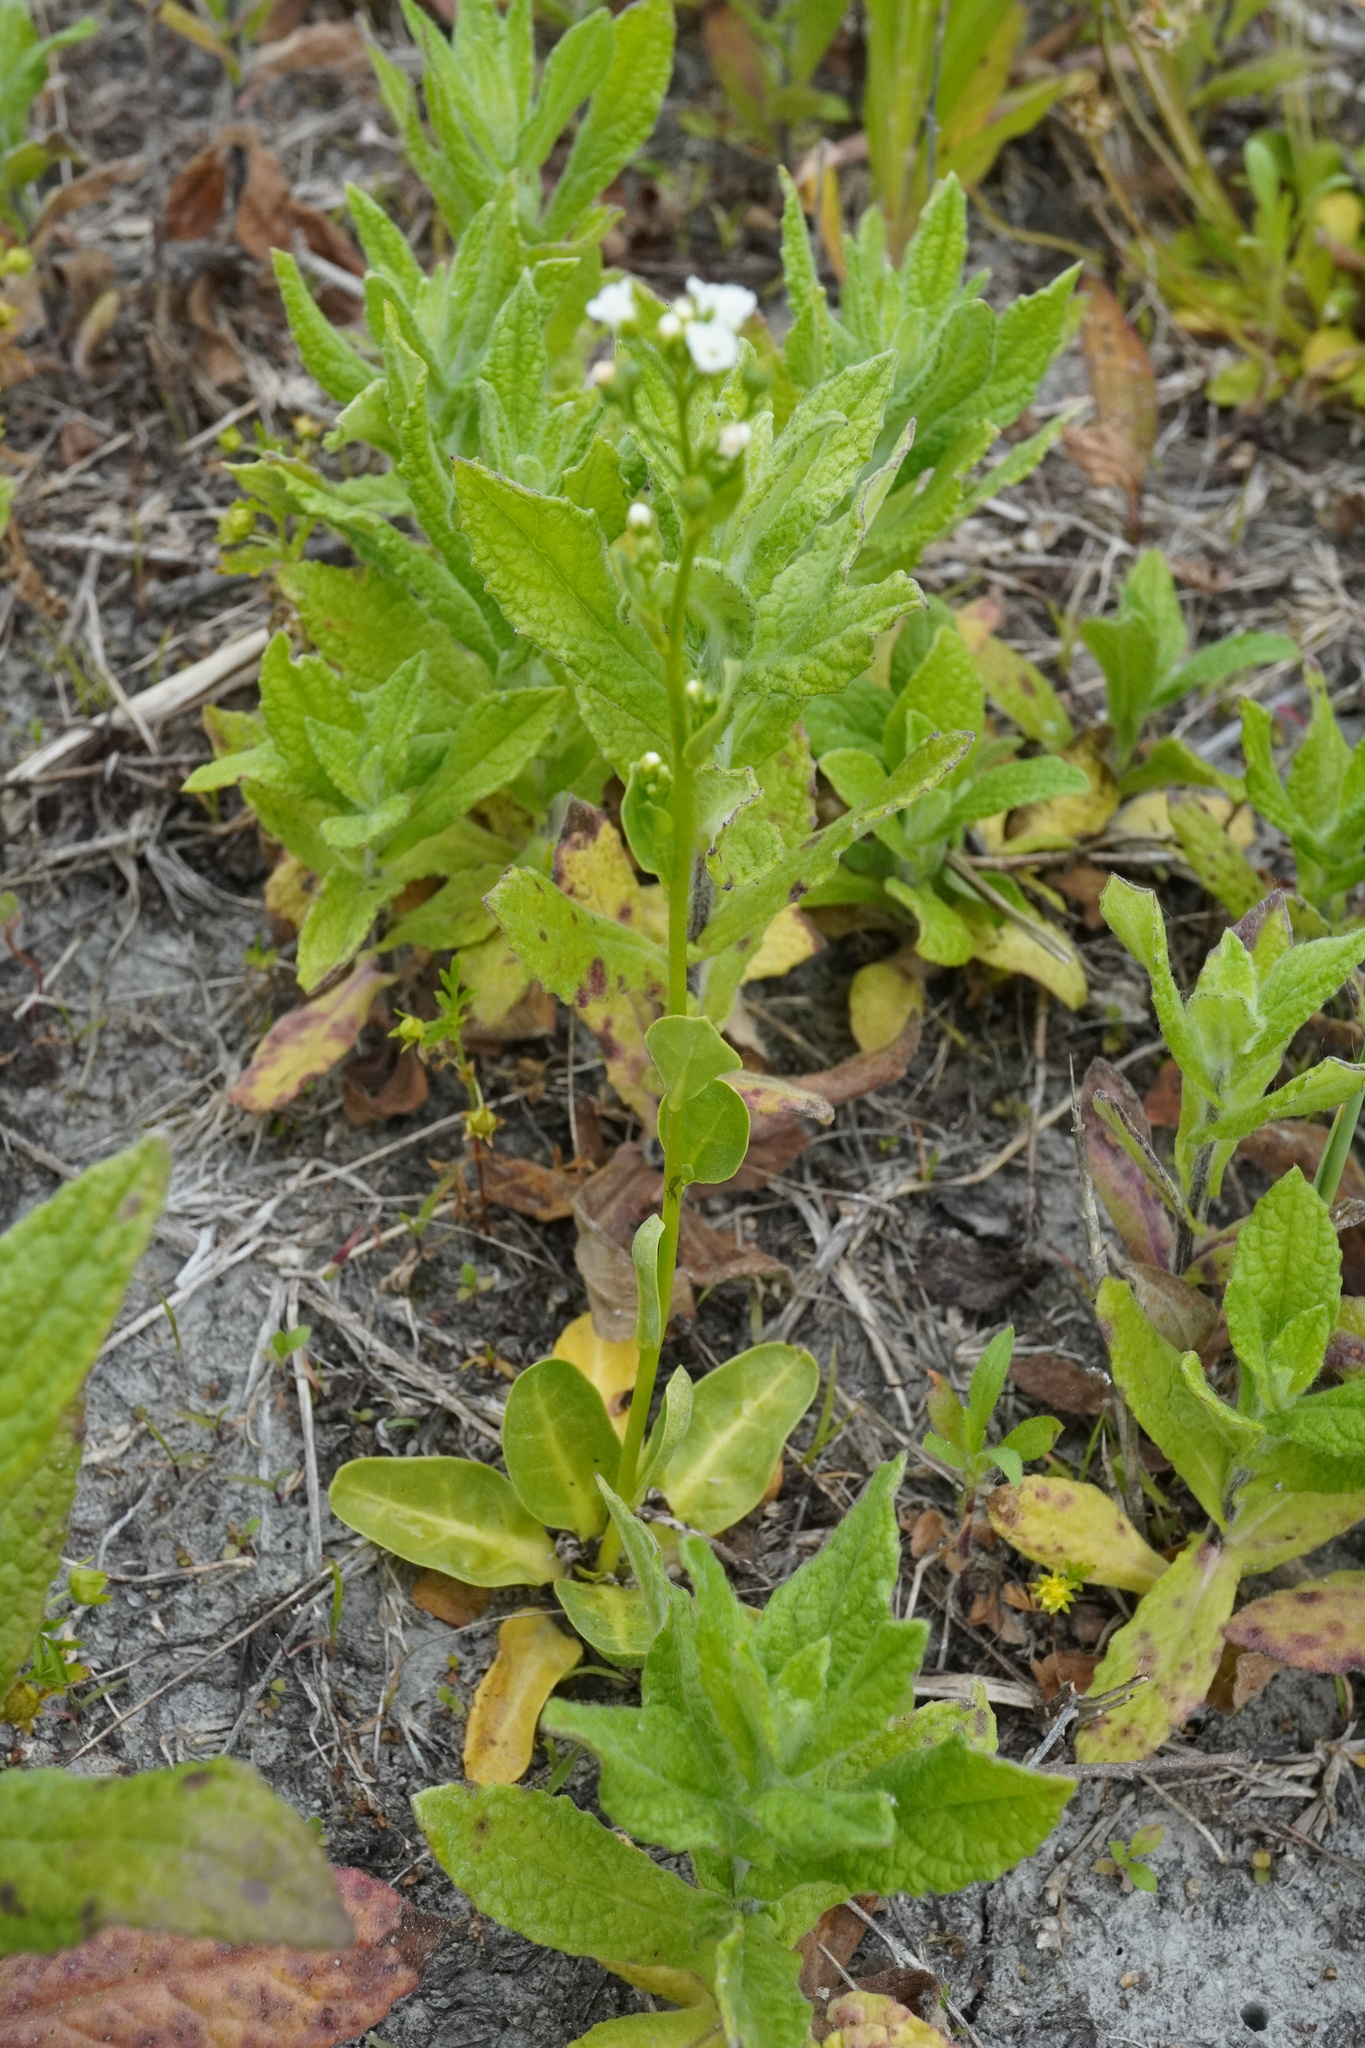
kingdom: Plantae
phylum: Tracheophyta
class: Magnoliopsida
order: Ericales
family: Primulaceae
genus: Samolus
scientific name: Samolus valerandi
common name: Brookweed
